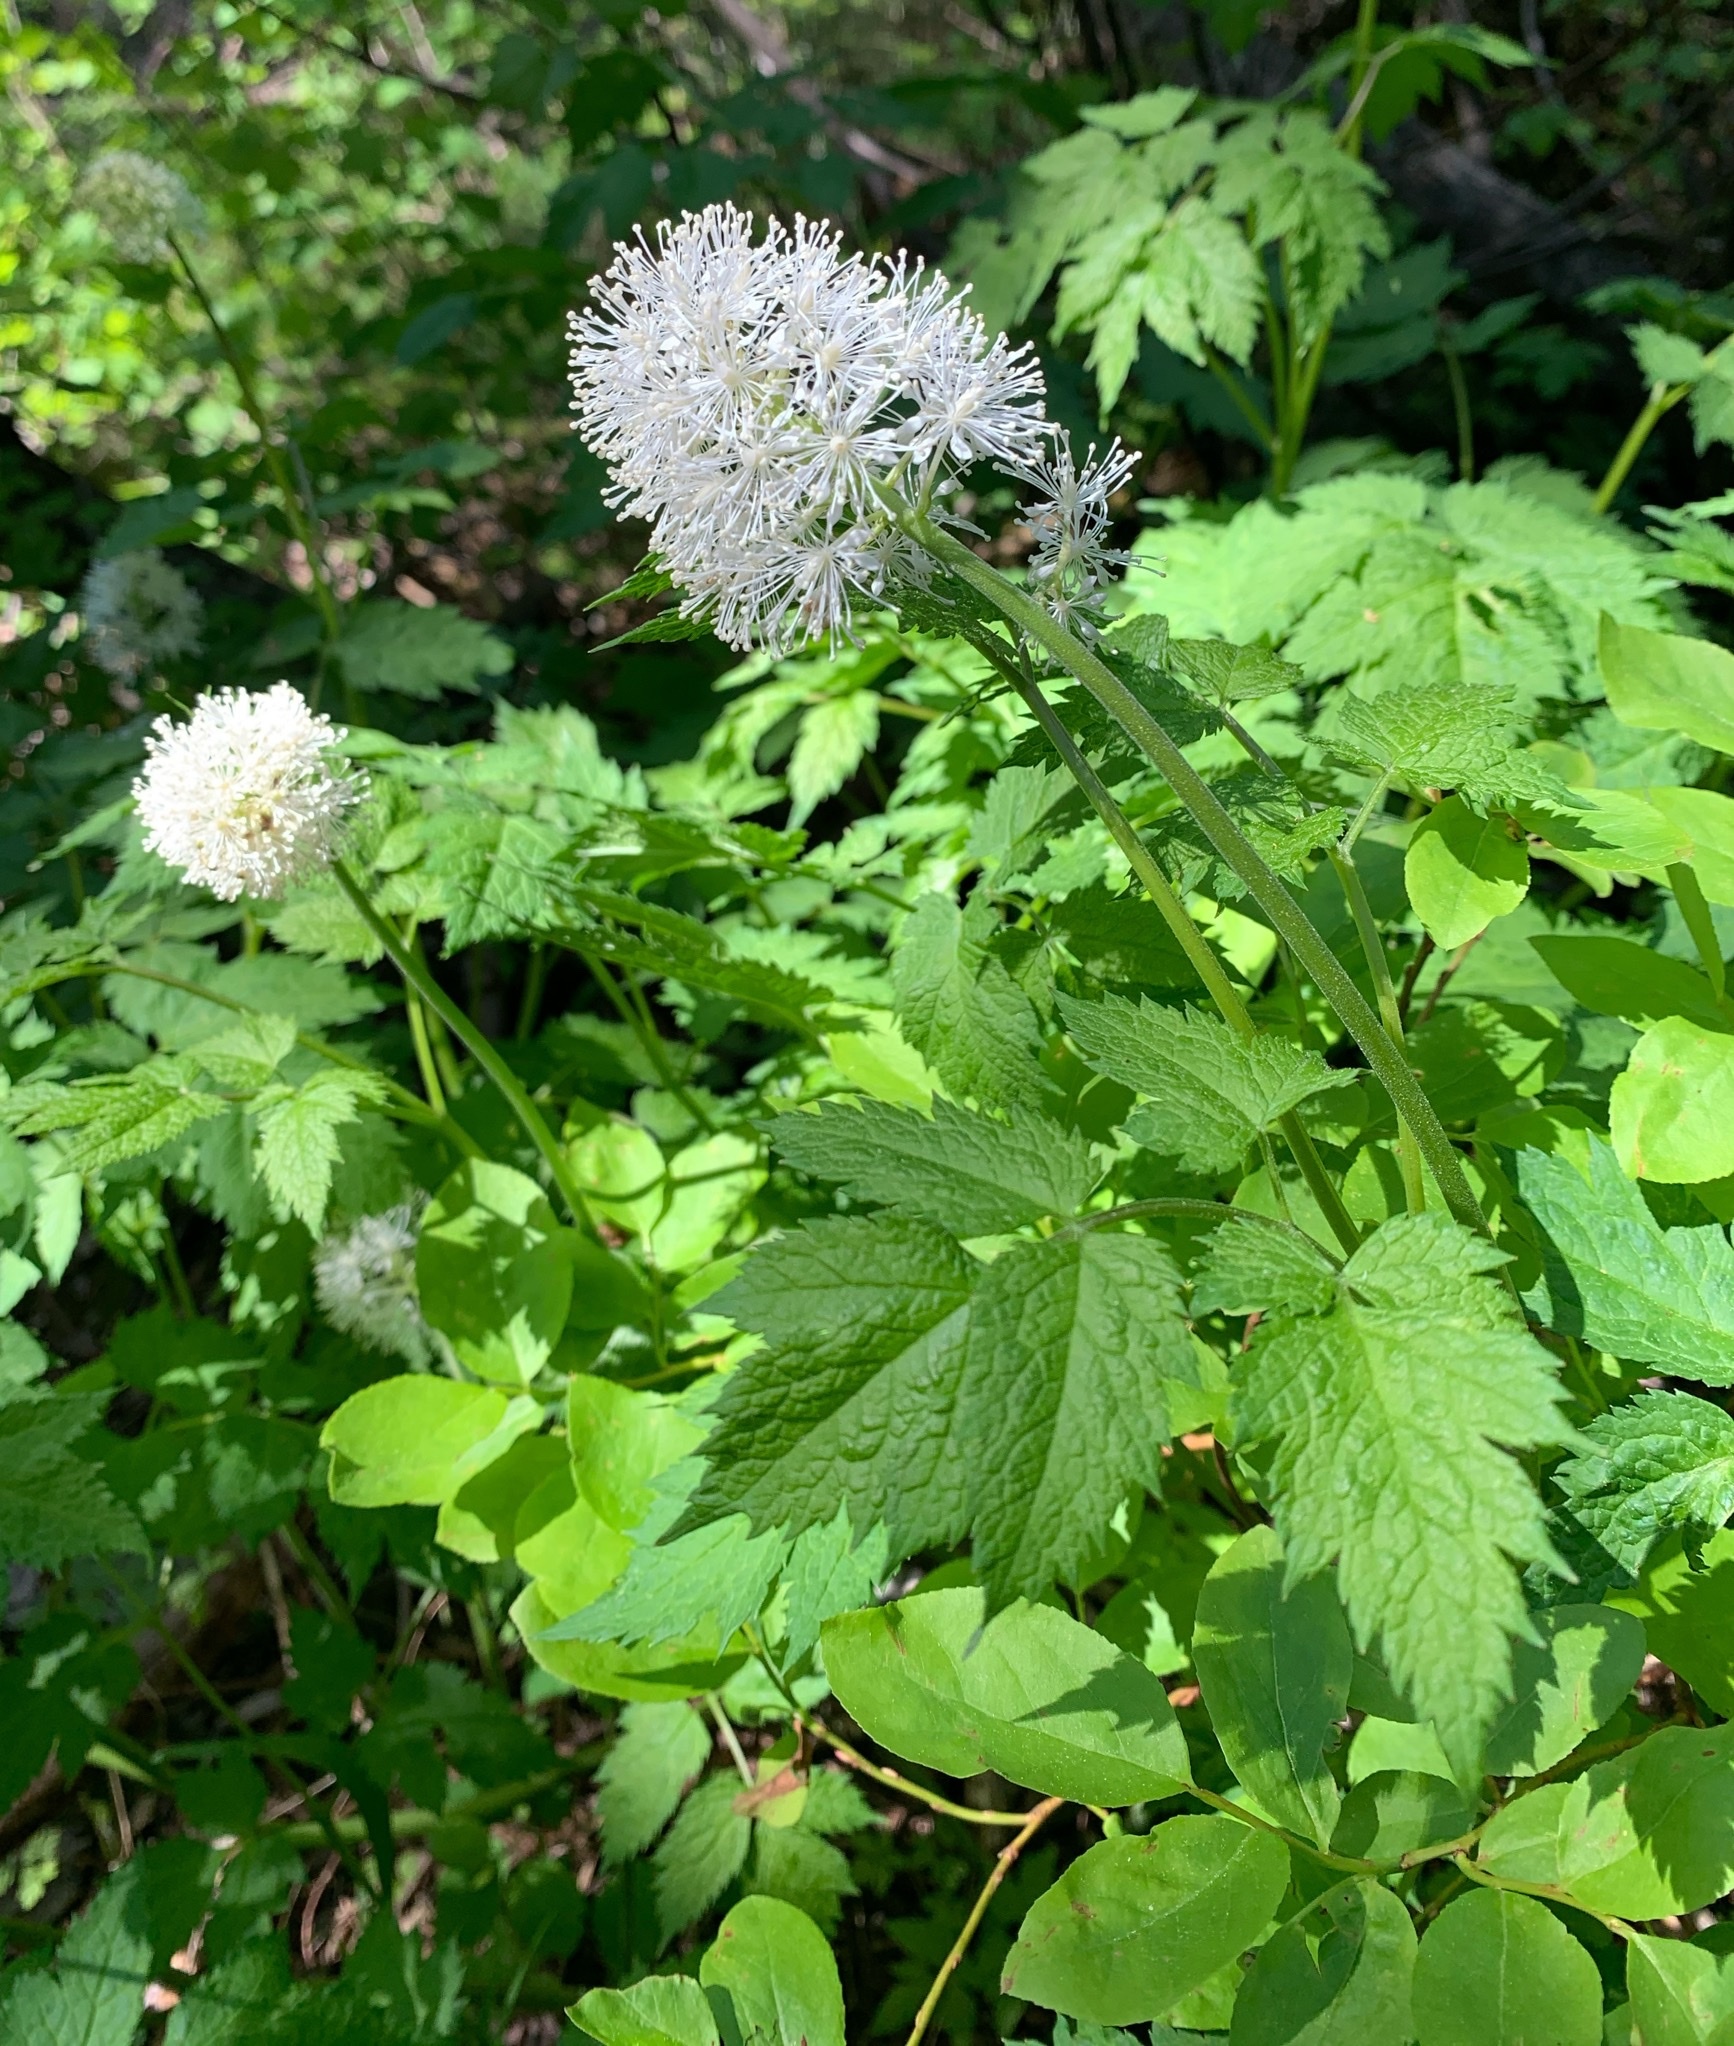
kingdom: Plantae
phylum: Tracheophyta
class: Magnoliopsida
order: Ranunculales
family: Ranunculaceae
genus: Actaea
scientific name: Actaea rubra
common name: Red baneberry
